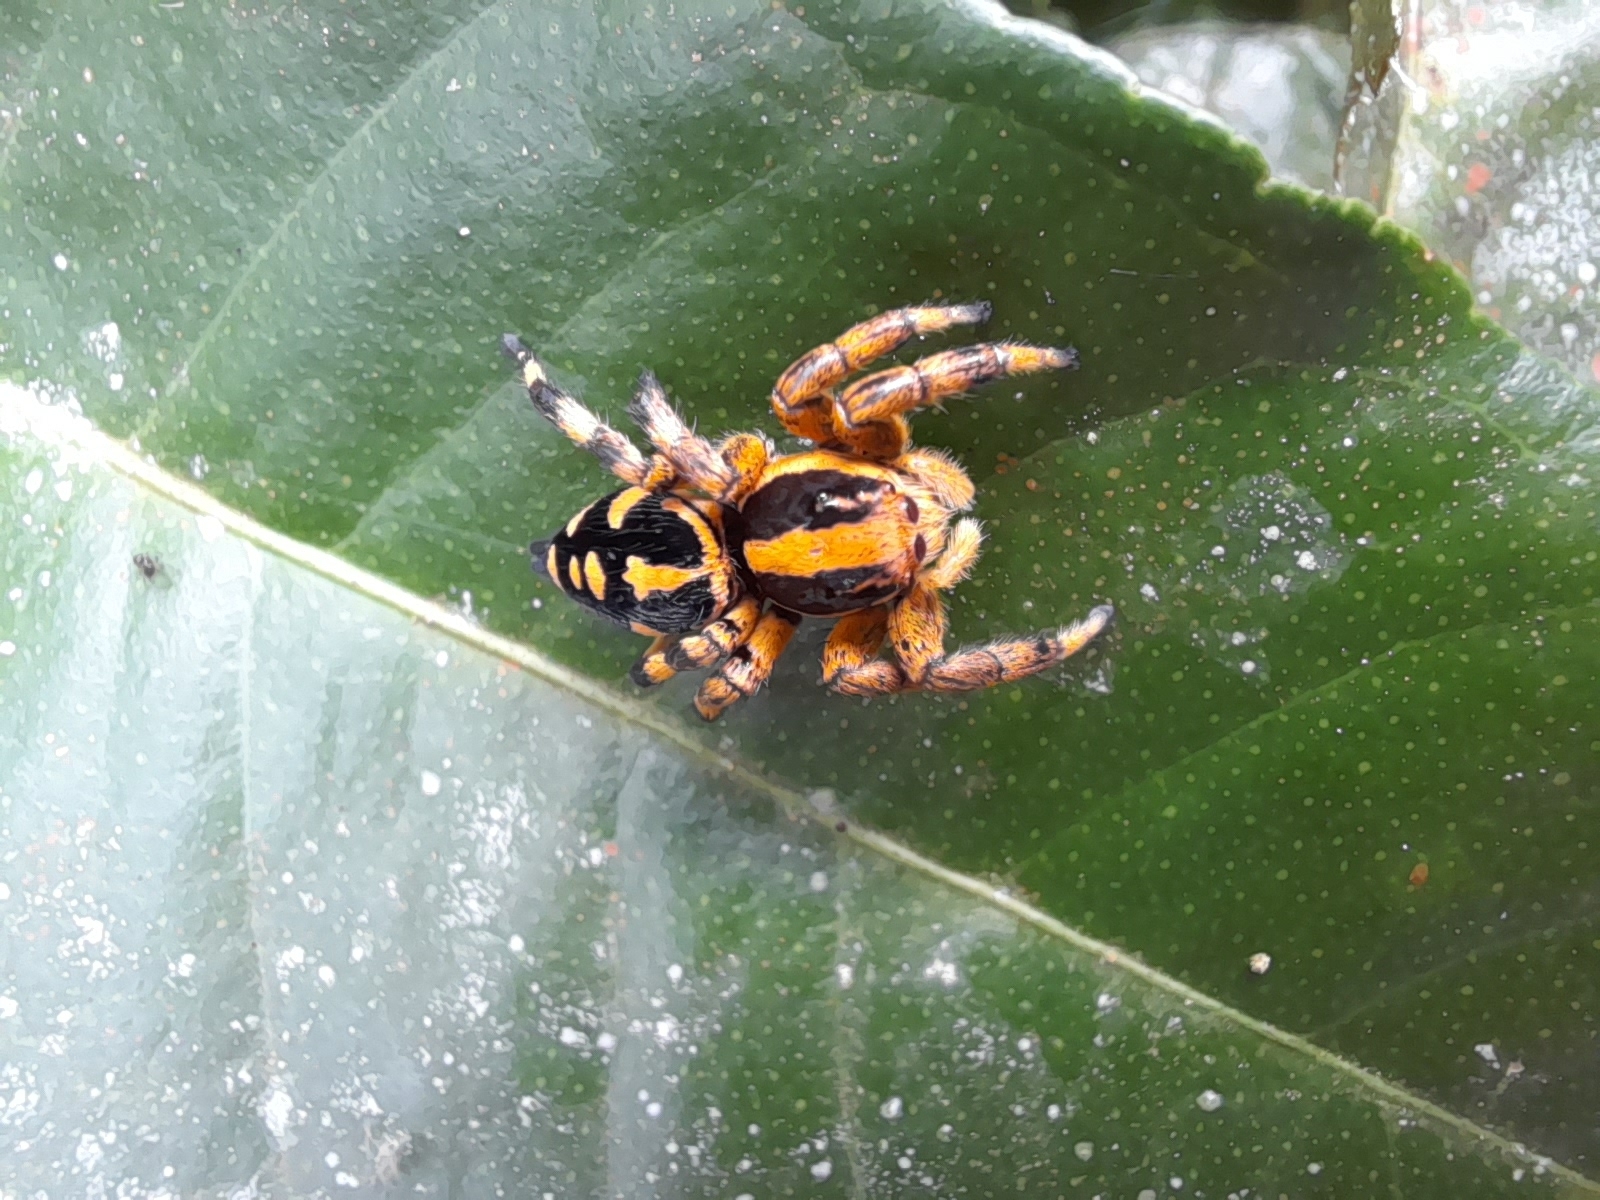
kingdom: Animalia
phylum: Arthropoda
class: Arachnida
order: Araneae
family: Salticidae
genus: Phiale
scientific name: Phiale guttata
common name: Jumping spiders
